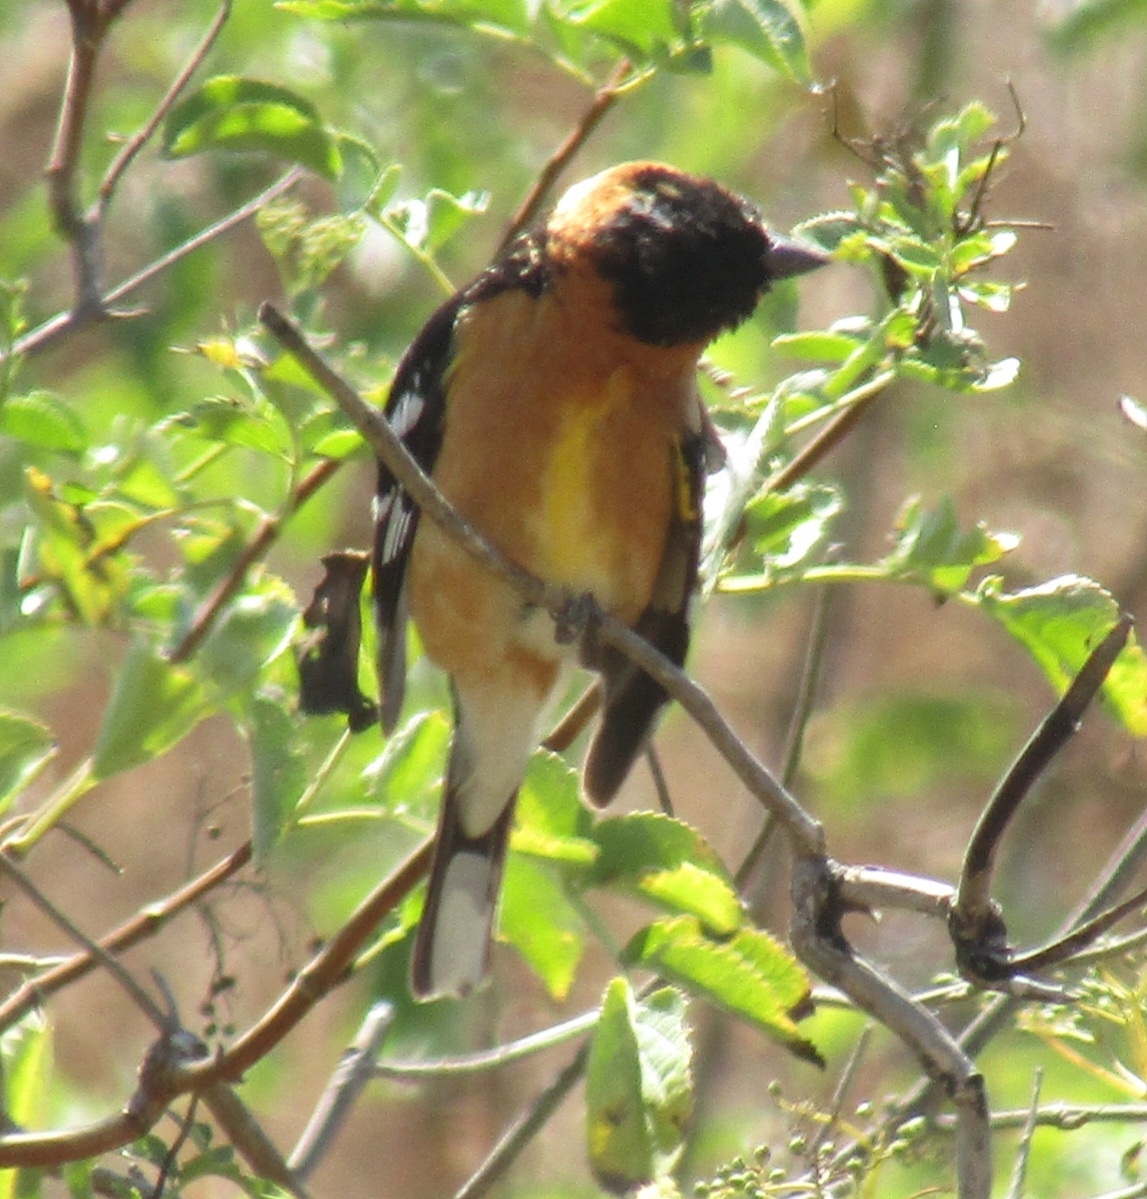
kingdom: Animalia
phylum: Chordata
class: Aves
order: Passeriformes
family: Cardinalidae
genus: Pheucticus
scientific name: Pheucticus melanocephalus
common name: Black-headed grosbeak
